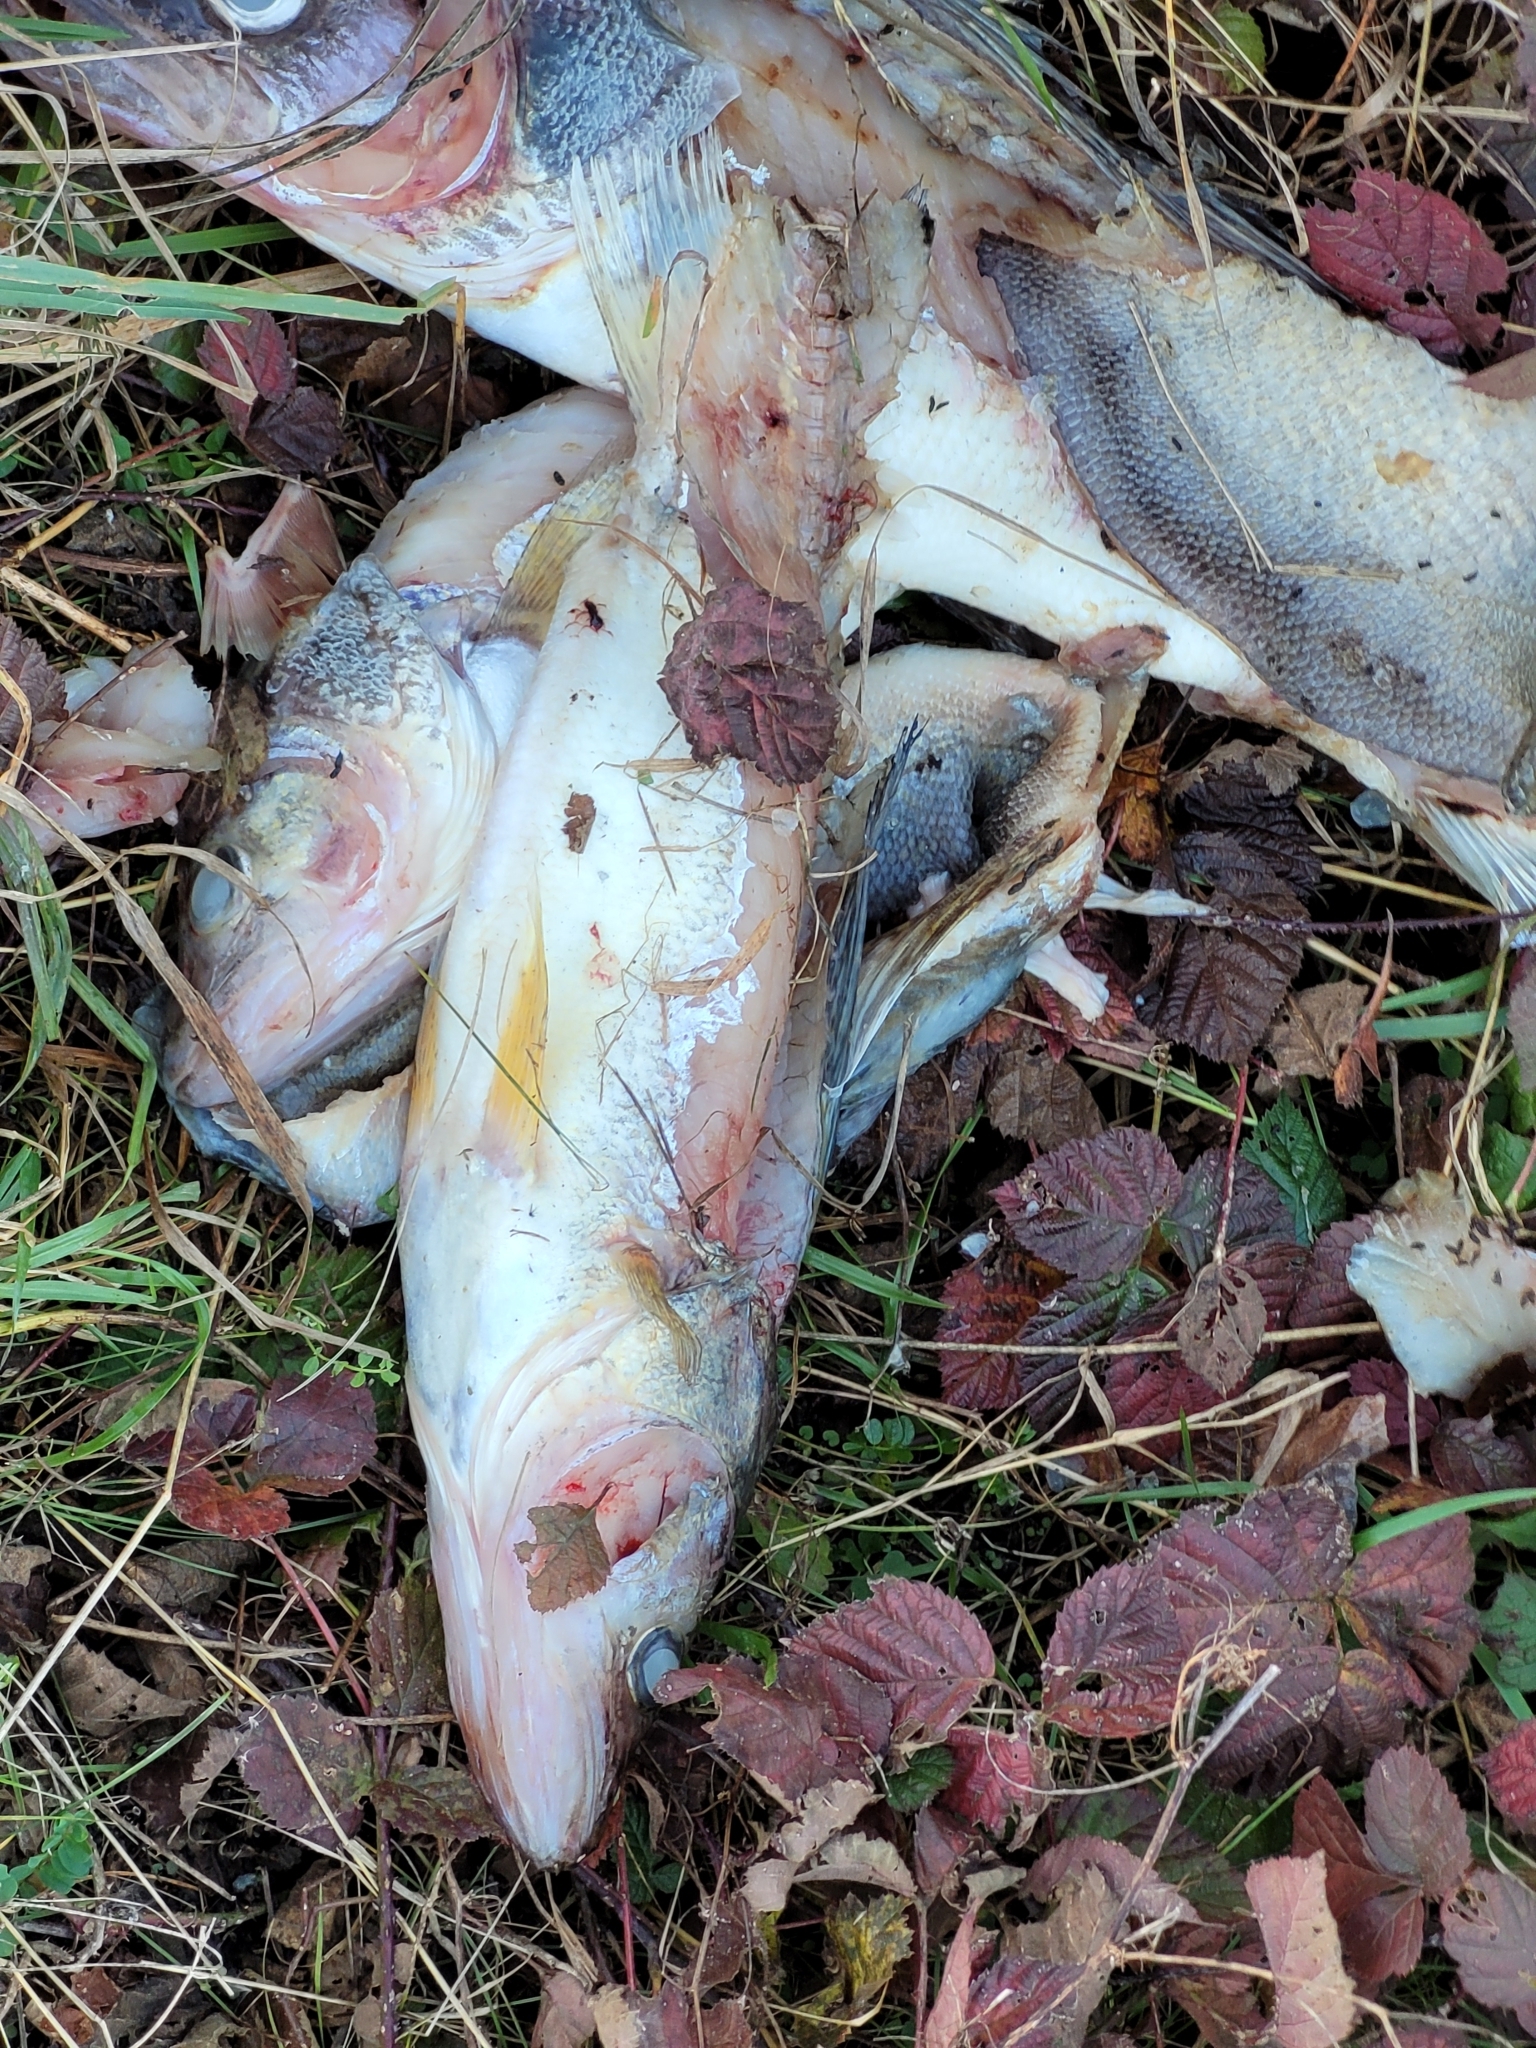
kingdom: Animalia
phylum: Chordata
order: Perciformes
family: Percidae
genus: Sander
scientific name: Sander vitreus
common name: Walleye
